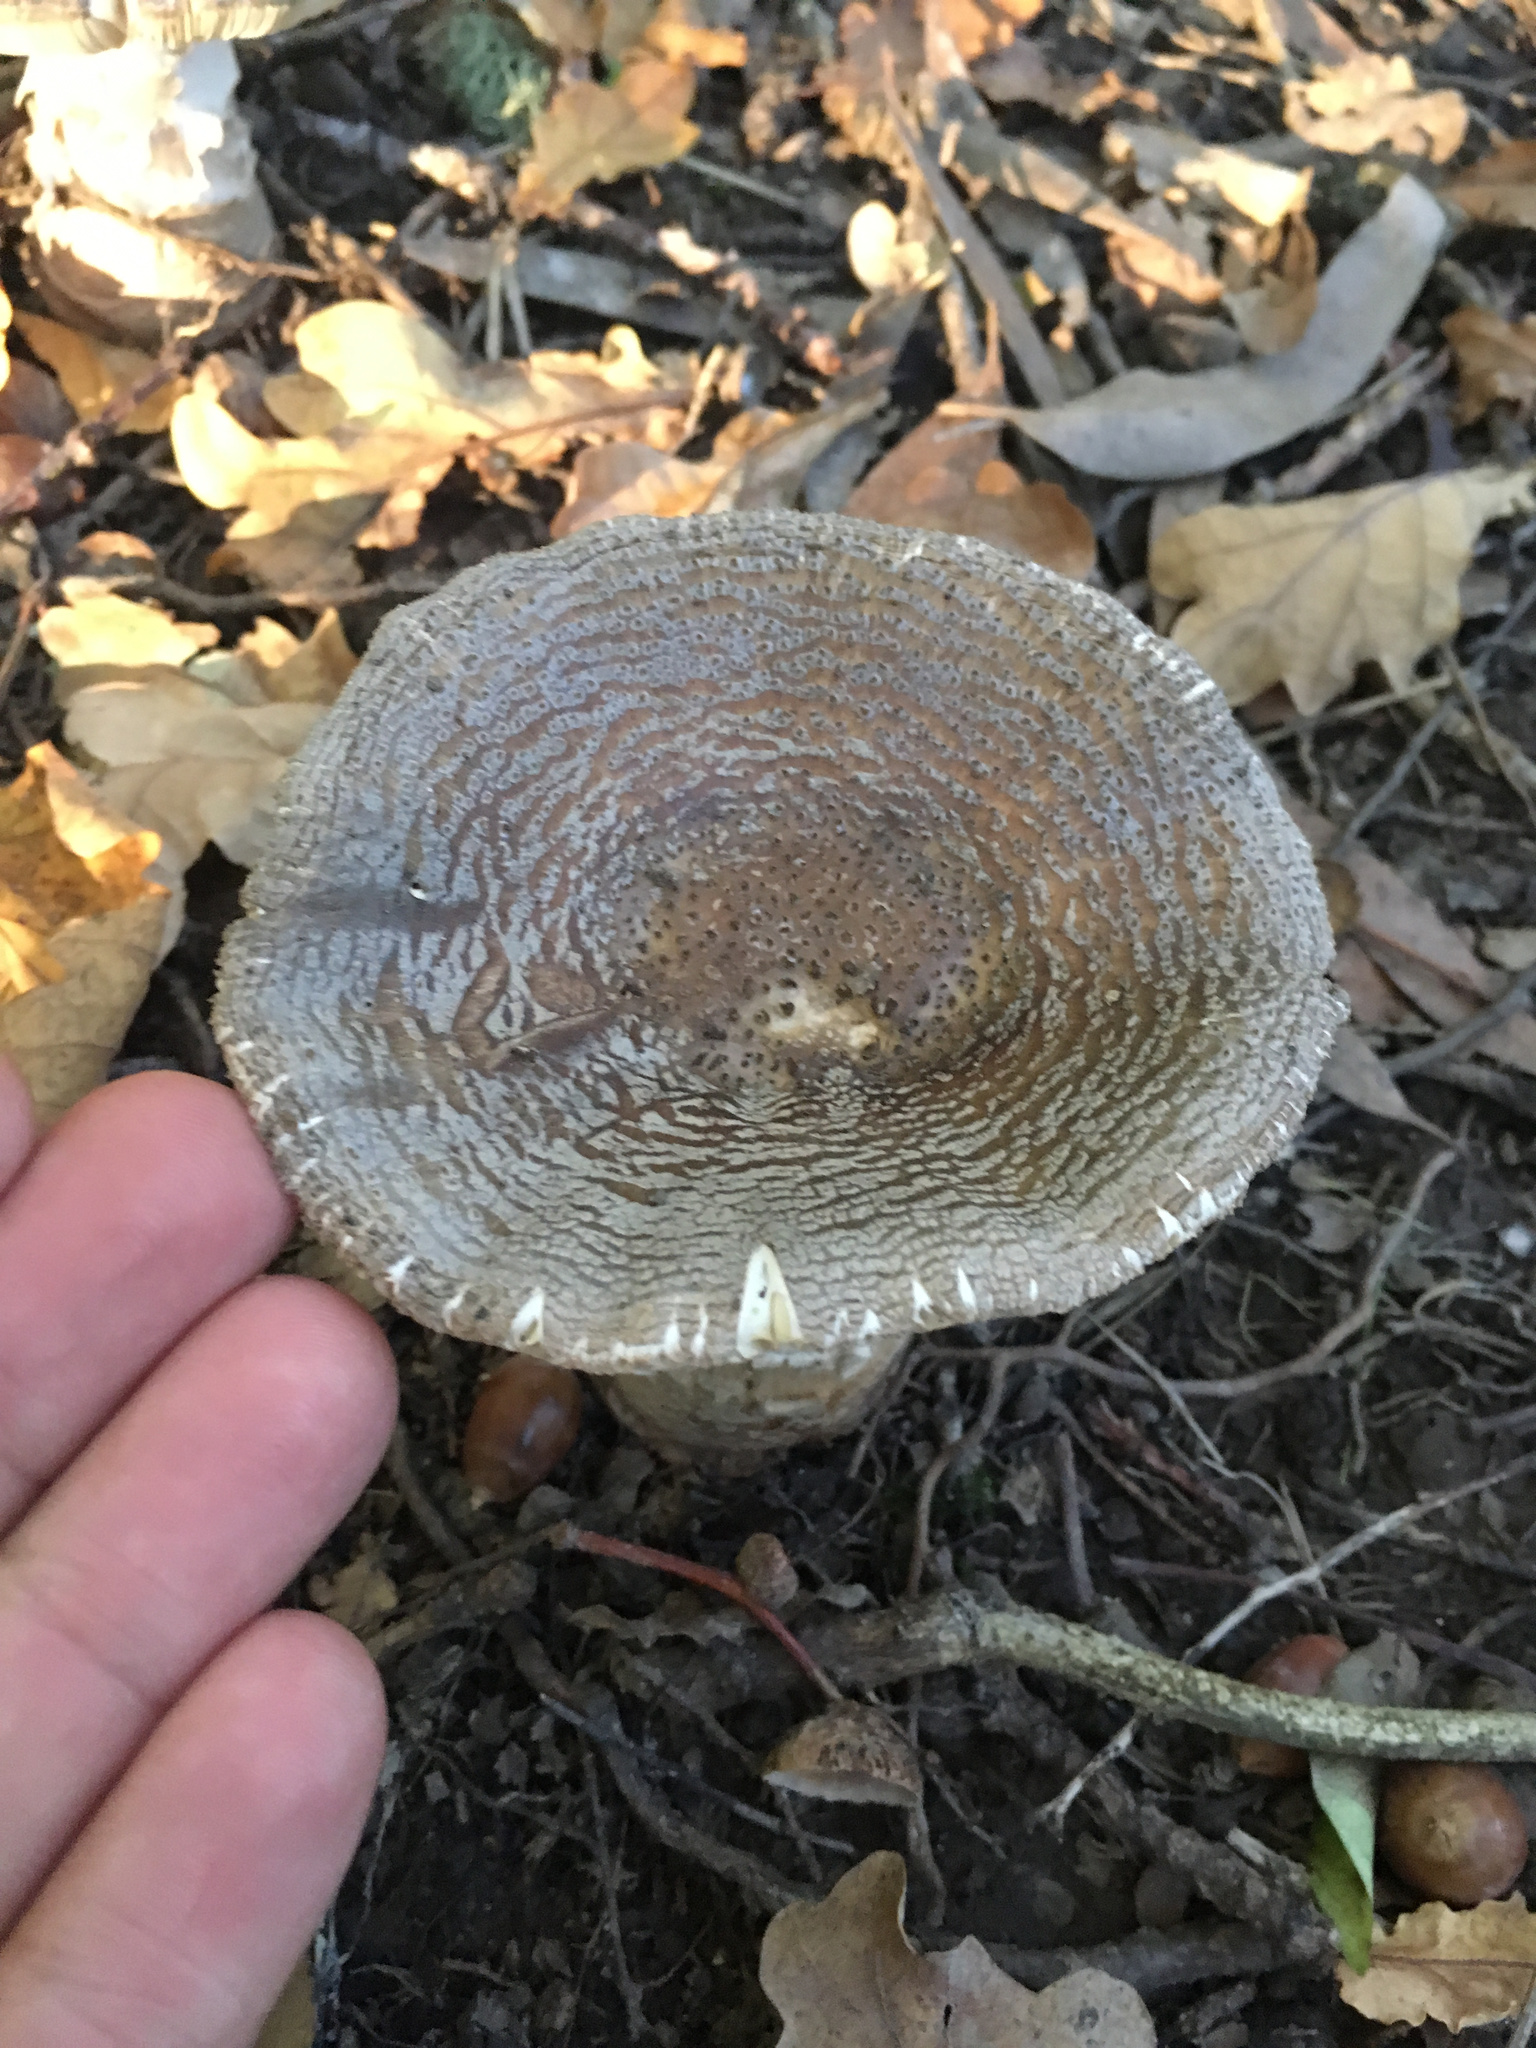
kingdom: Fungi
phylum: Basidiomycota
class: Agaricomycetes
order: Agaricales
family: Amanitaceae
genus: Amanita
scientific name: Amanita excelsa
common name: European false blusher
